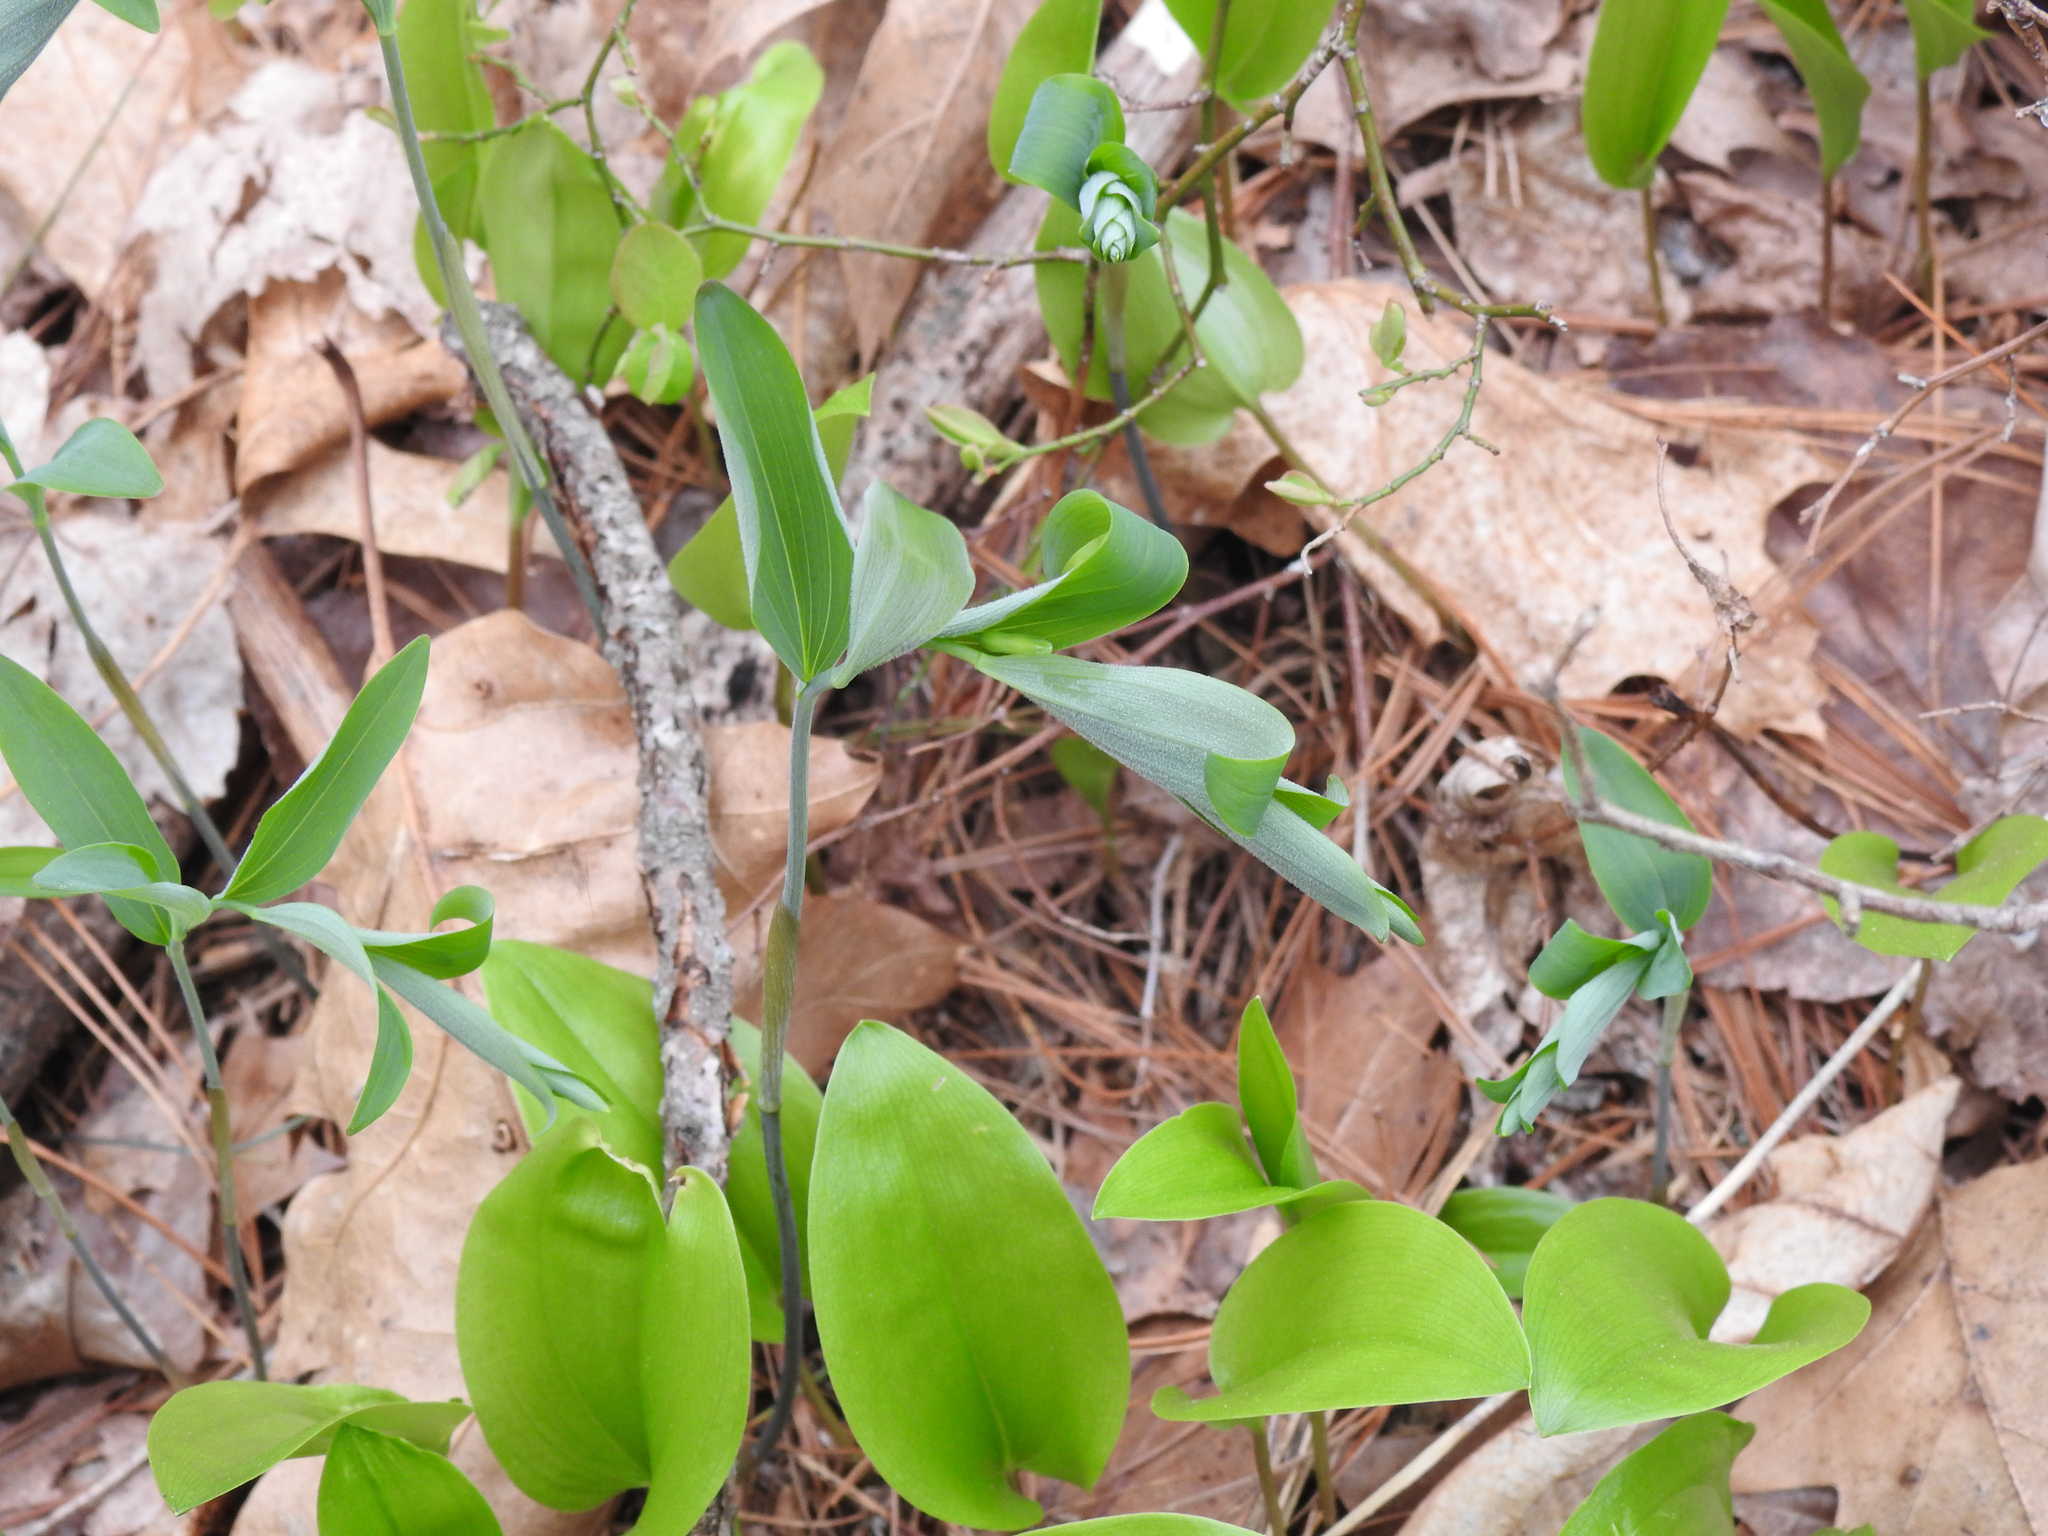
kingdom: Plantae
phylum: Tracheophyta
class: Liliopsida
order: Asparagales
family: Asparagaceae
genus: Polygonatum
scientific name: Polygonatum pubescens
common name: Downy solomon's seal
